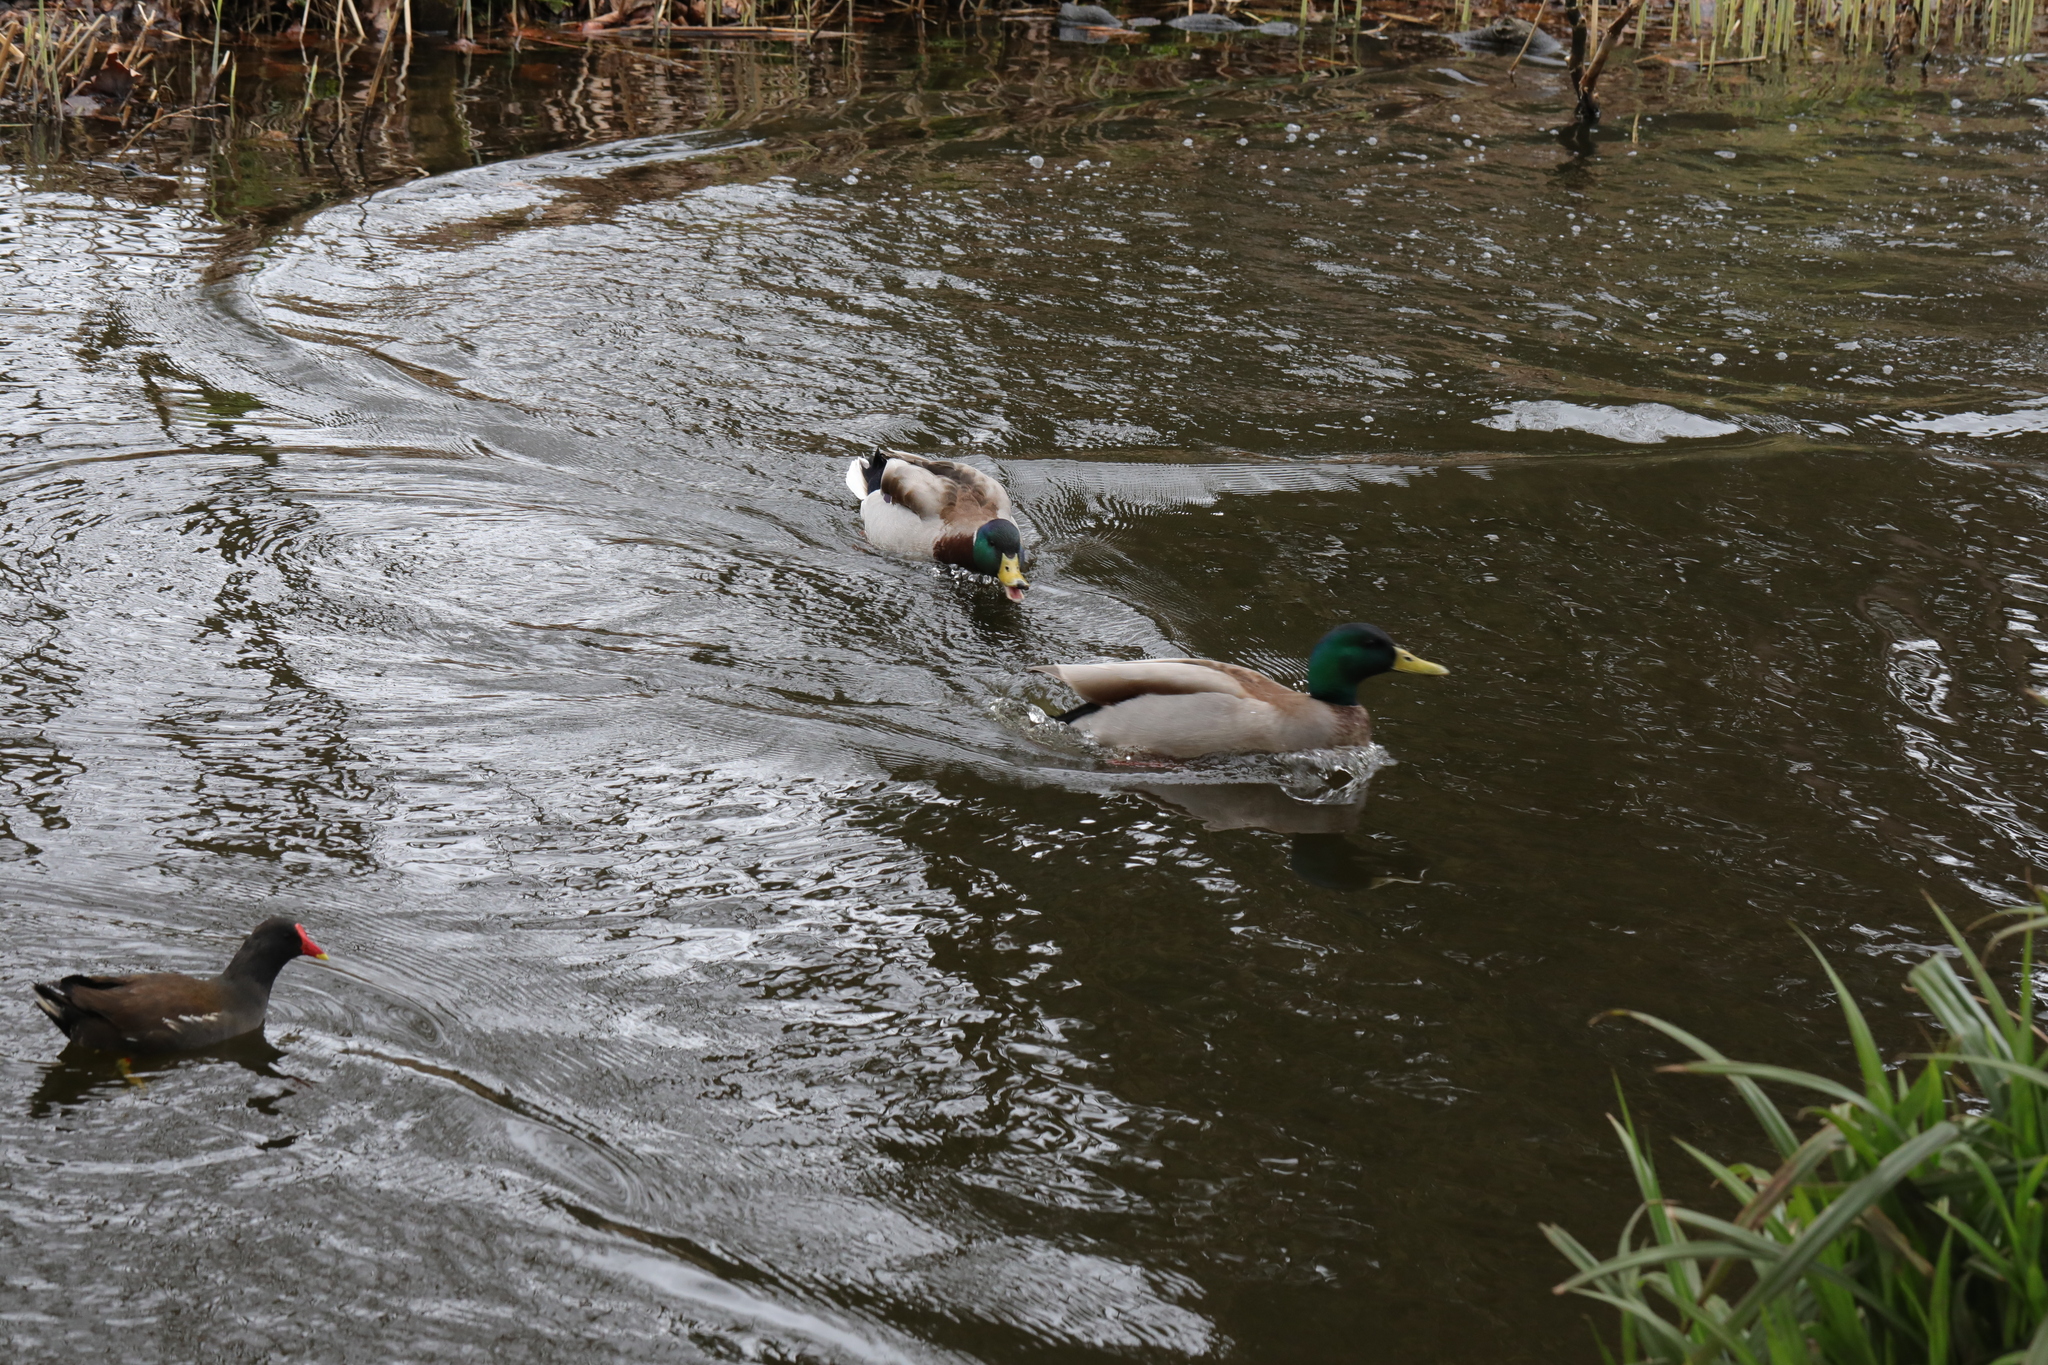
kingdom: Animalia
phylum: Chordata
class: Aves
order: Anseriformes
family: Anatidae
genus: Anas
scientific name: Anas platyrhynchos
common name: Mallard
